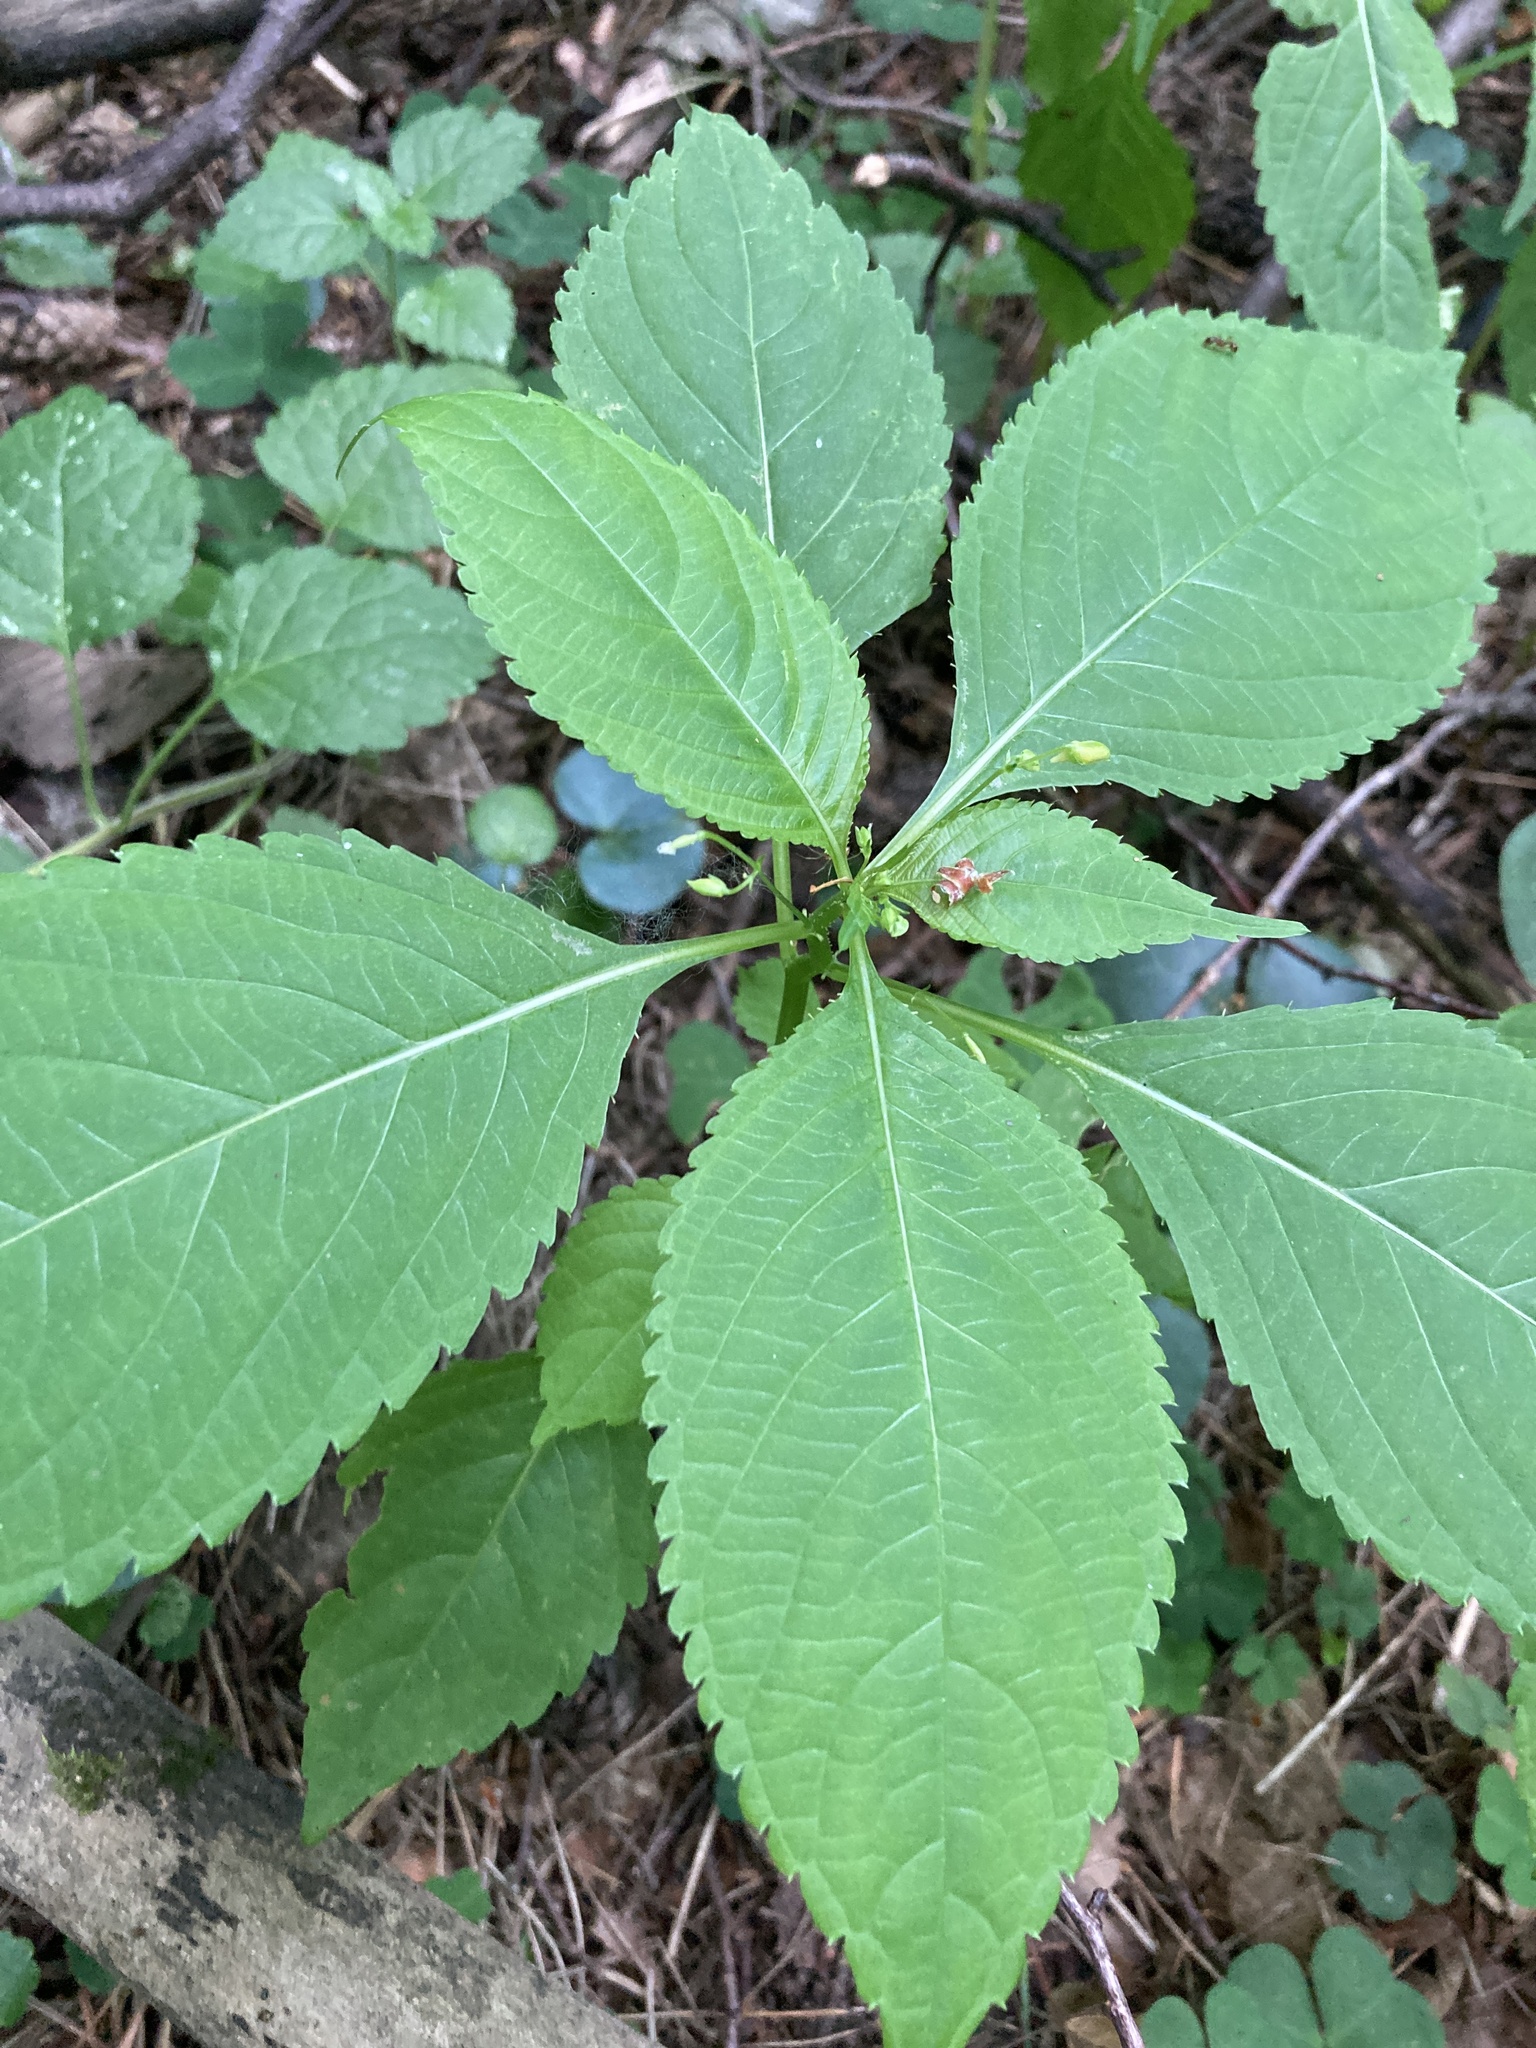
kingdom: Plantae
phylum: Tracheophyta
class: Magnoliopsida
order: Ericales
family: Balsaminaceae
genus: Impatiens
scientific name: Impatiens parviflora
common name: Small balsam
